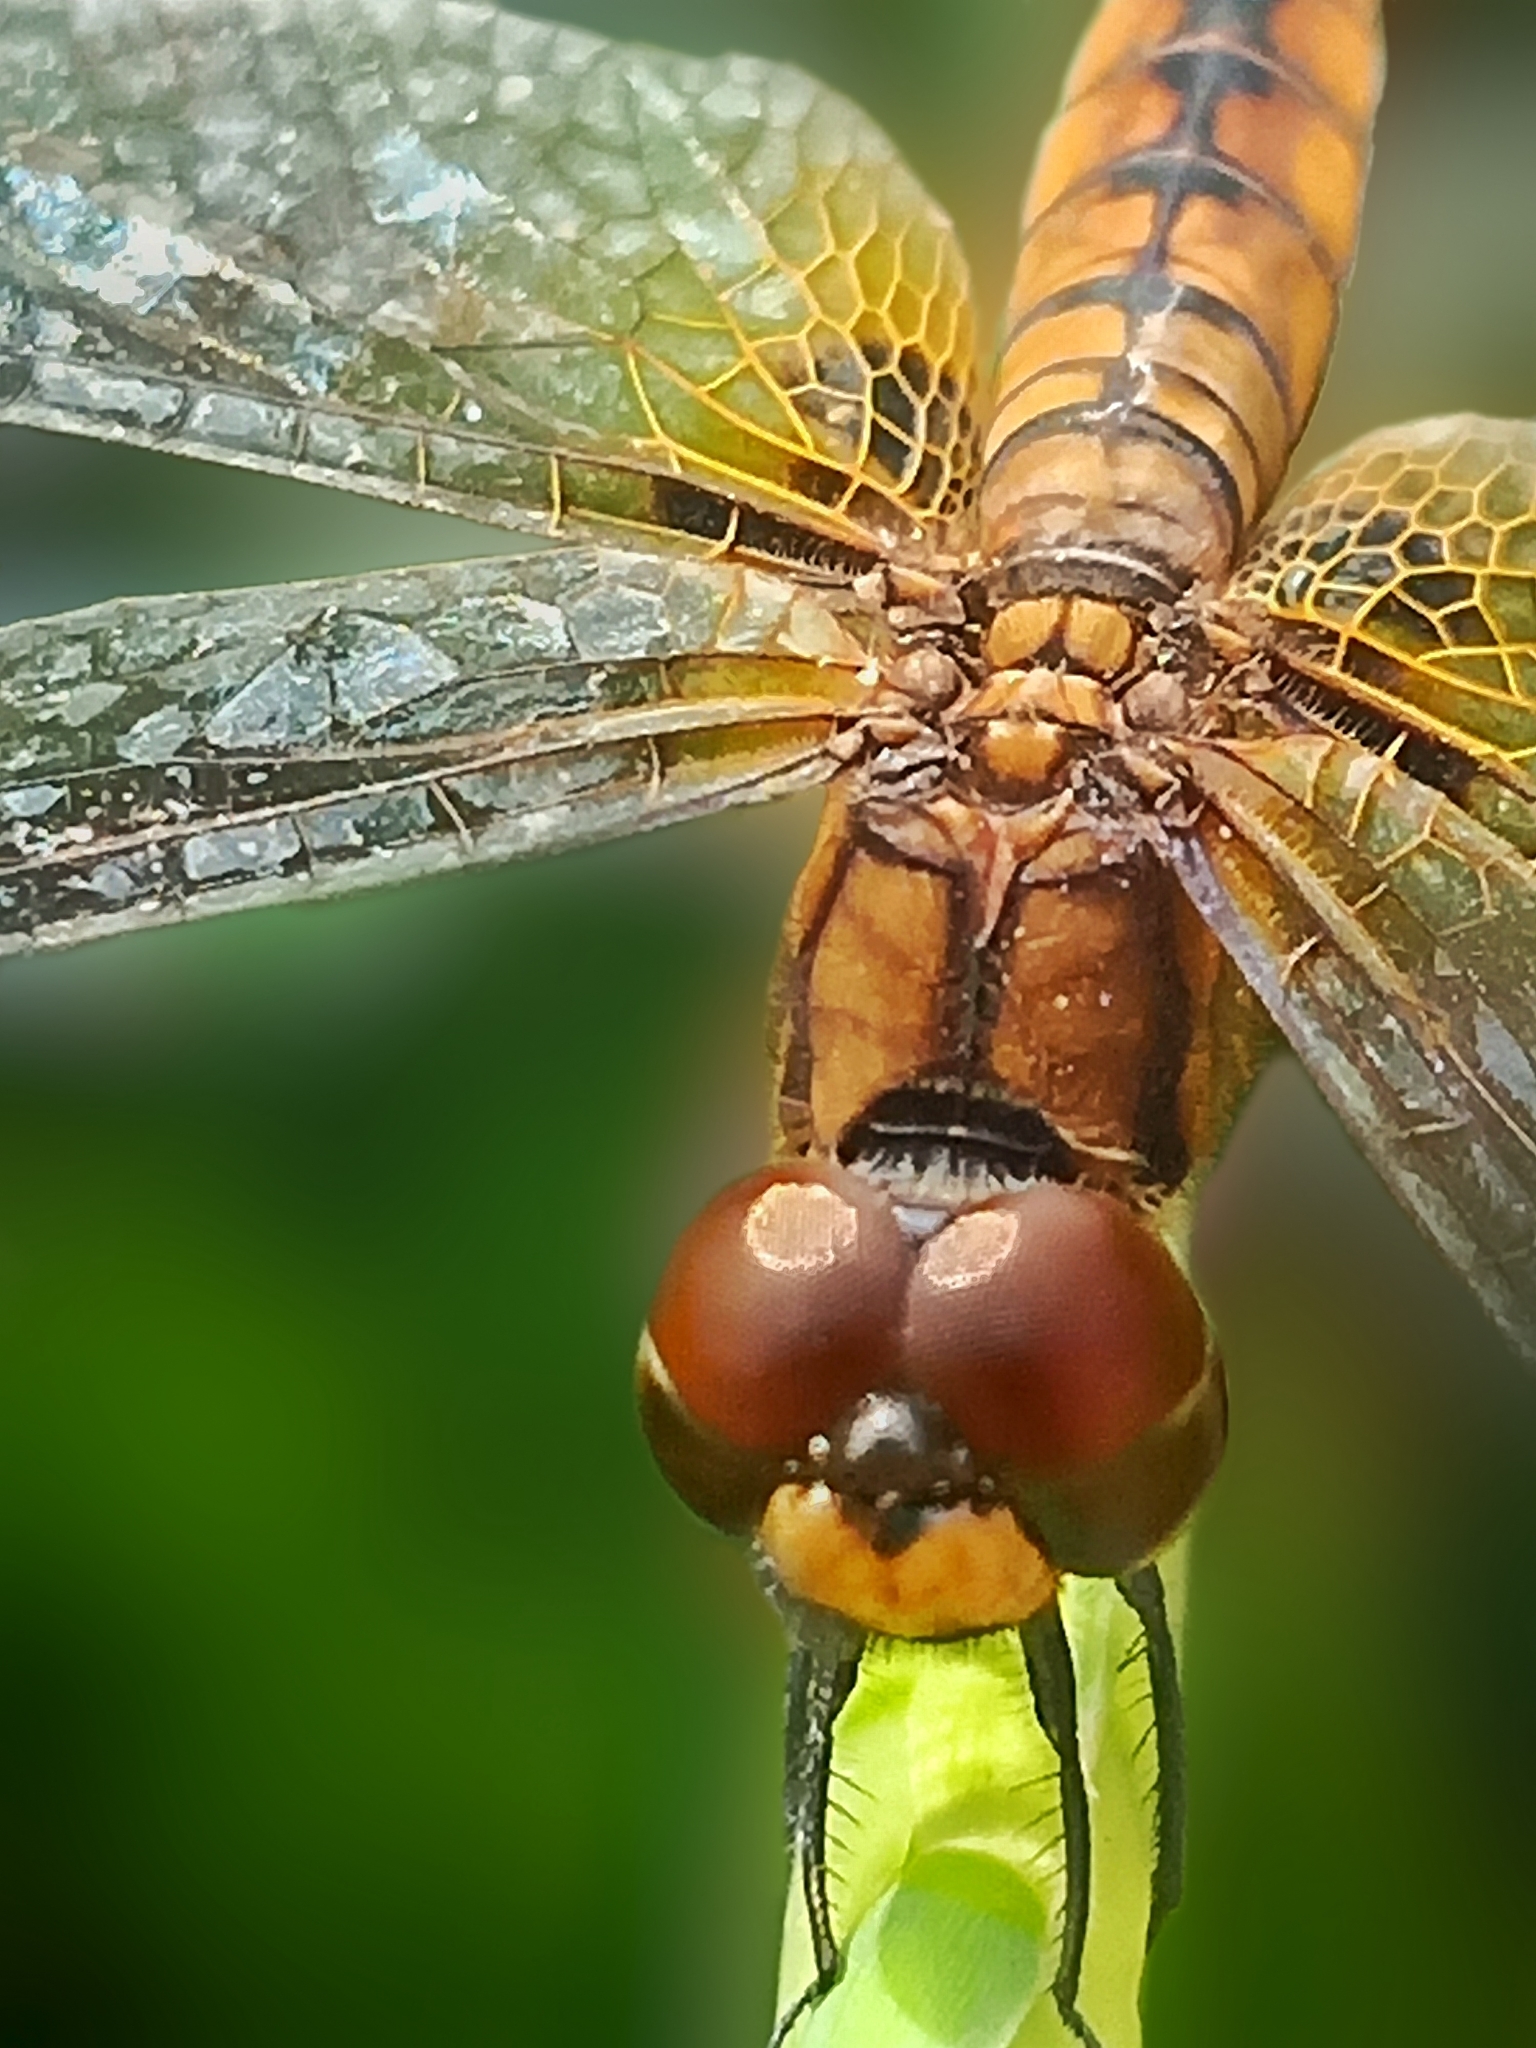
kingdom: Animalia
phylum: Arthropoda
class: Insecta
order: Odonata
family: Libellulidae
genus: Aethriamanta
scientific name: Aethriamanta brevipennis
